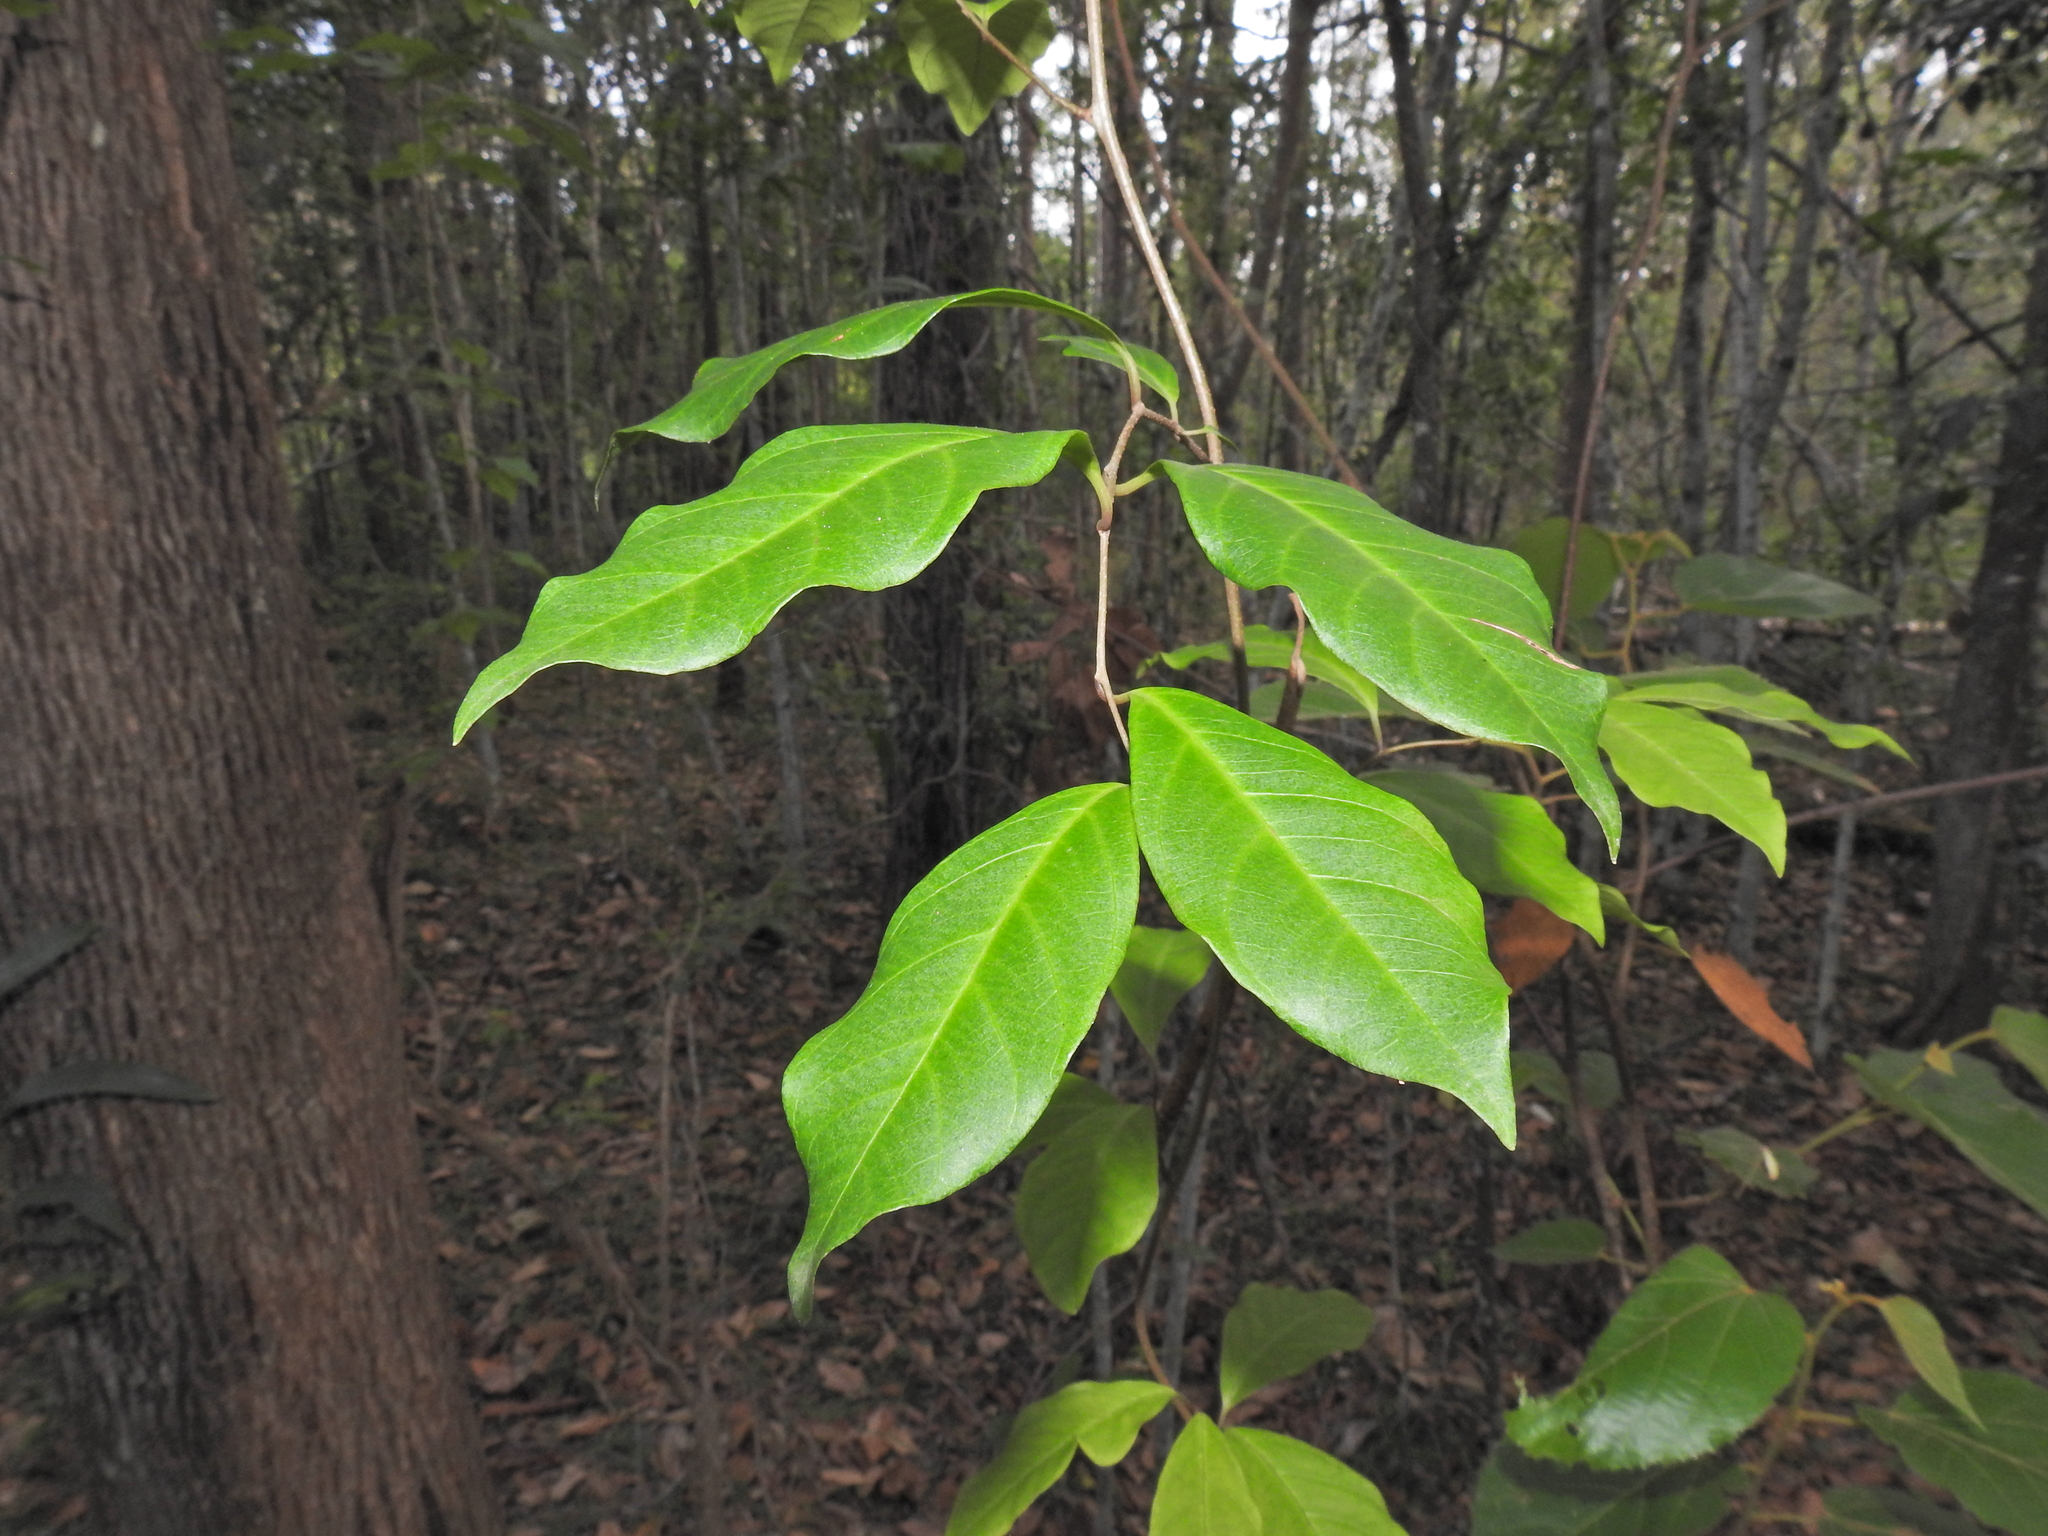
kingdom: Plantae
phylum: Tracheophyta
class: Magnoliopsida
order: Ericales
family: Primulaceae
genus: Embelia
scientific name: Embelia australiana
